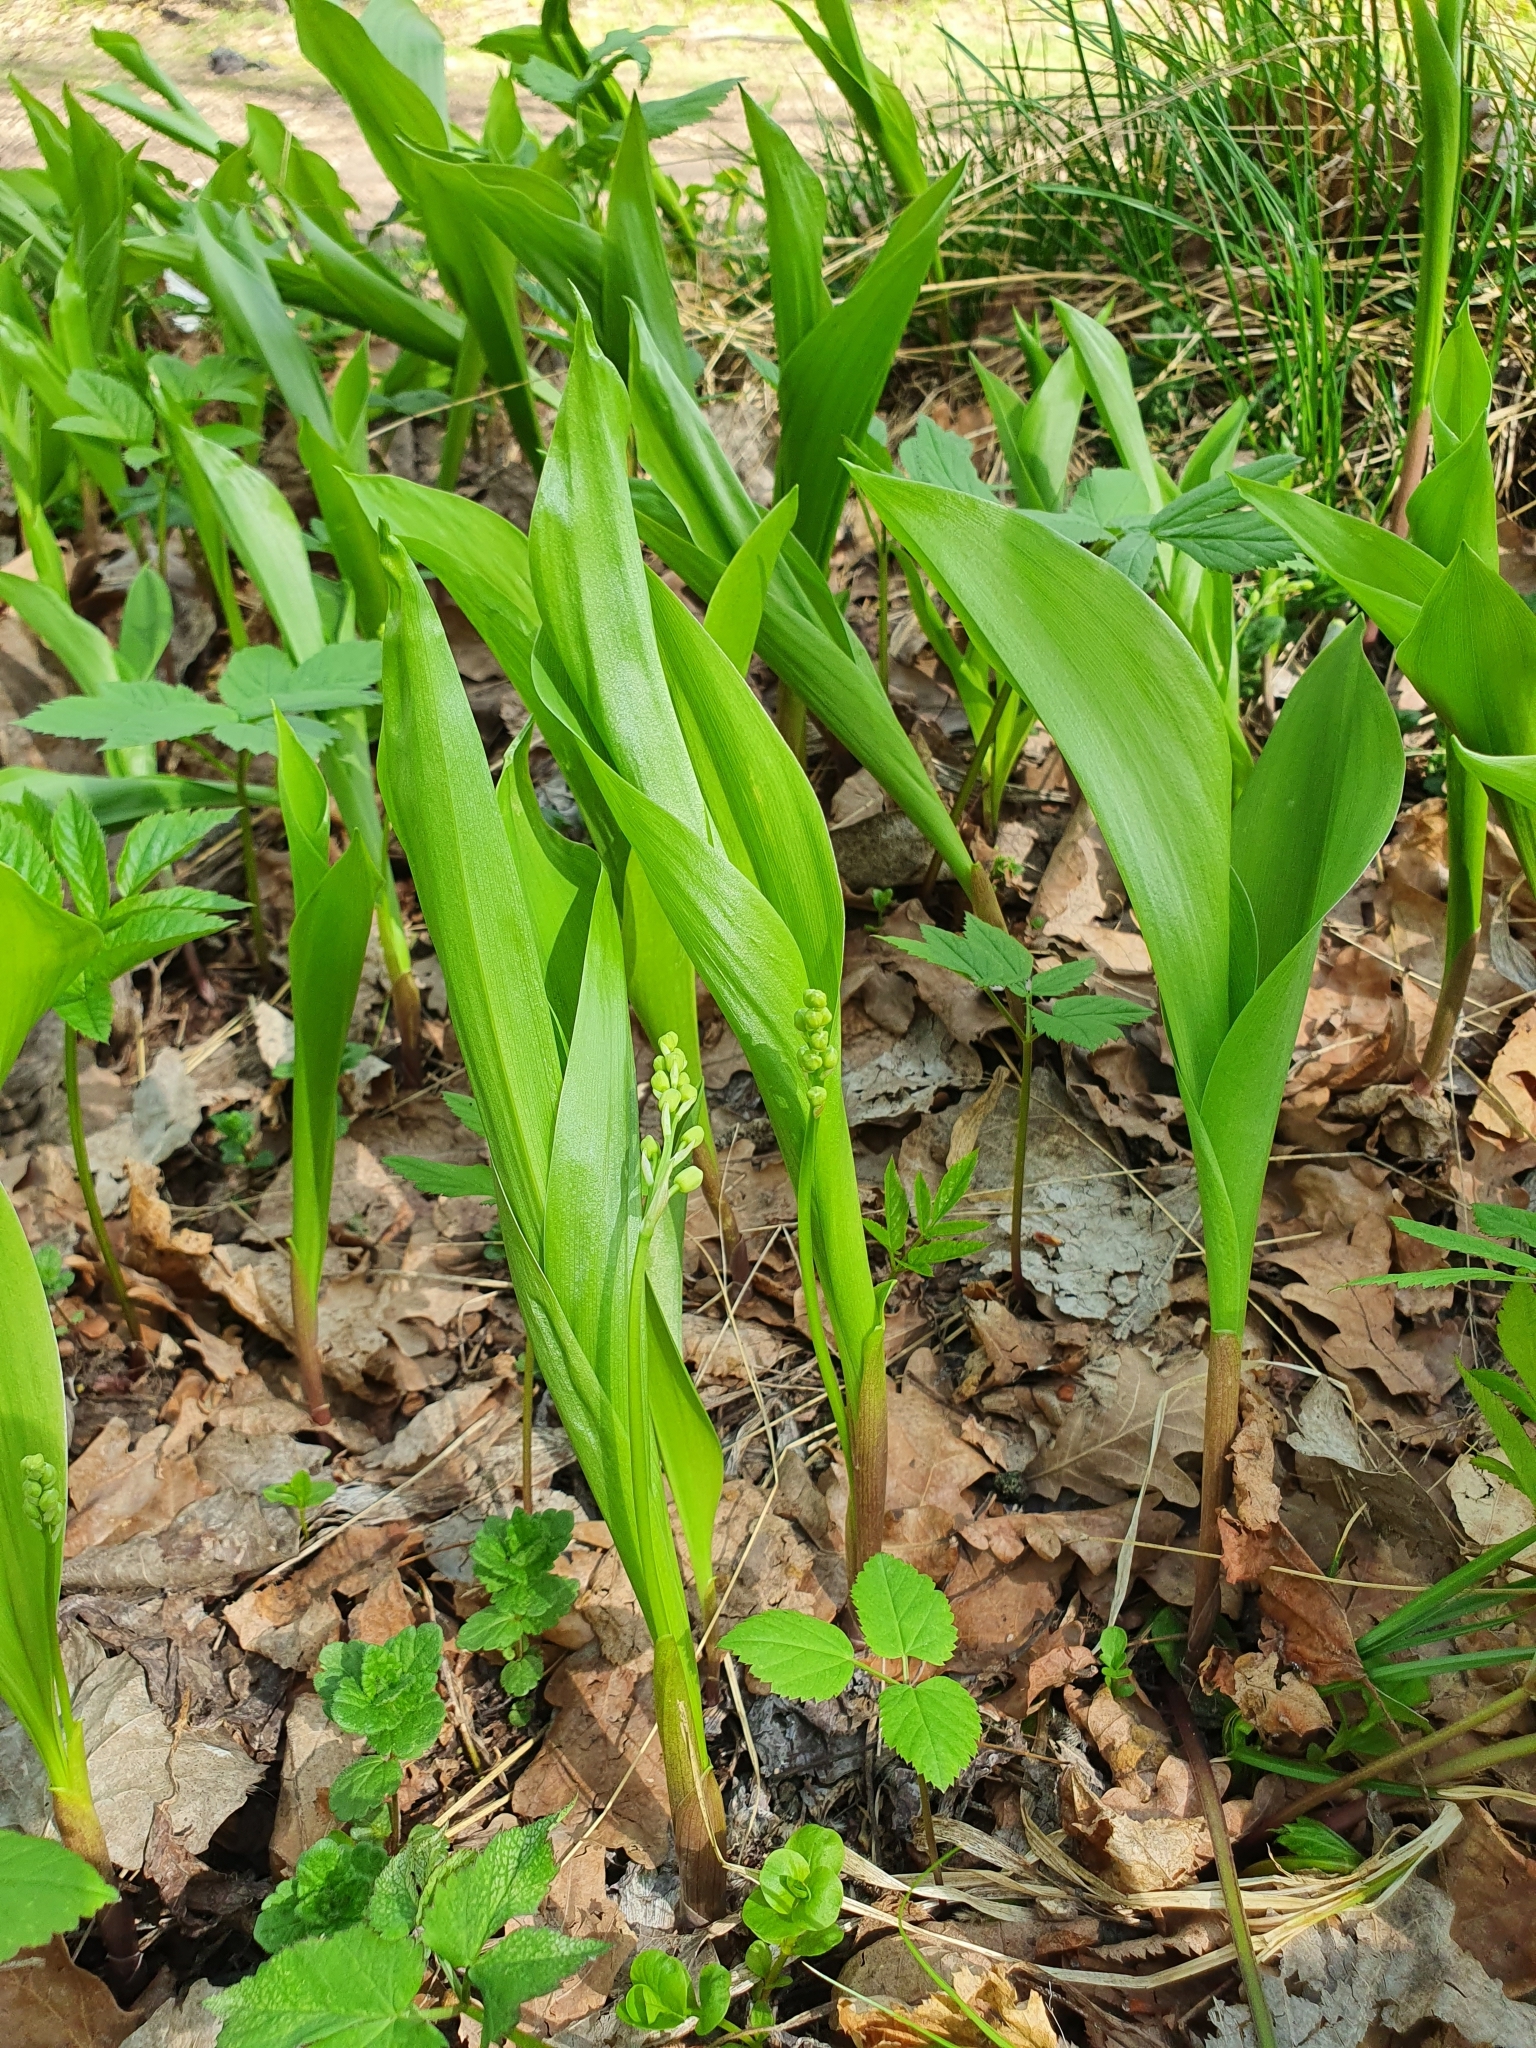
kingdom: Plantae
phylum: Tracheophyta
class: Liliopsida
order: Asparagales
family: Asparagaceae
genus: Convallaria
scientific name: Convallaria majalis
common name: Lily-of-the-valley
